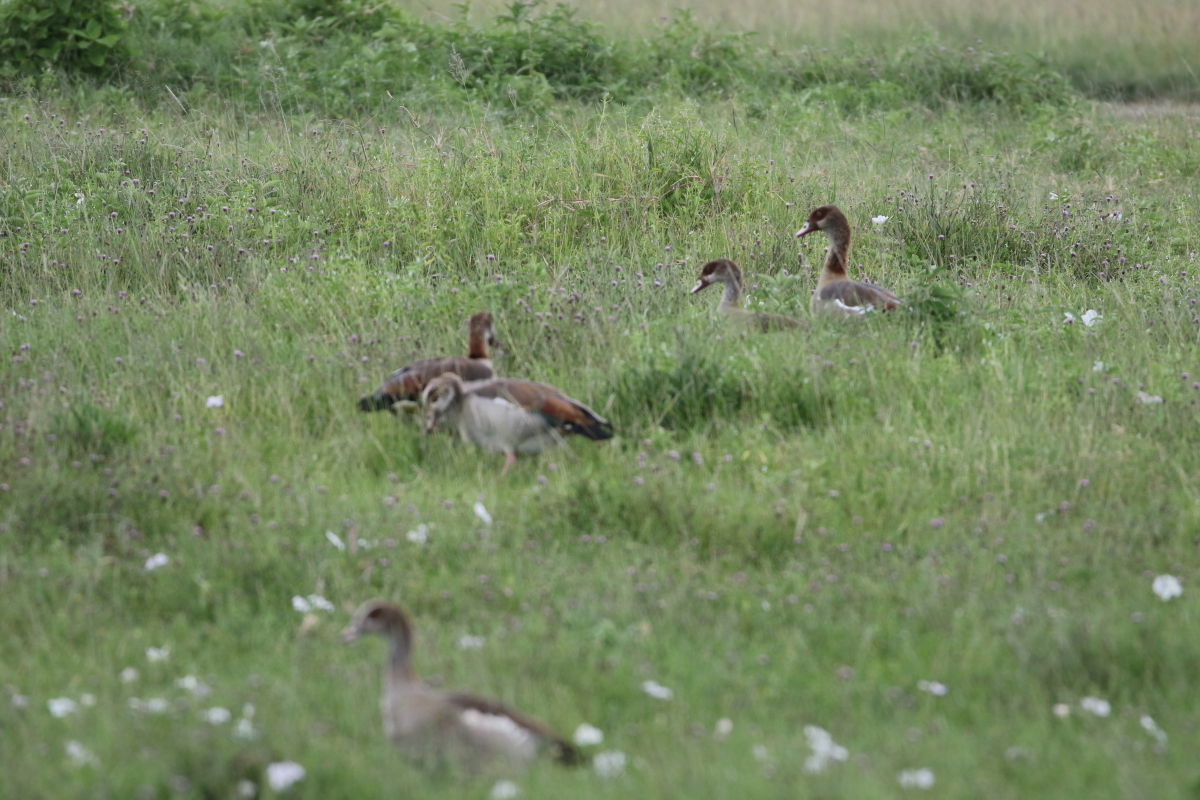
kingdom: Animalia
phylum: Chordata
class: Aves
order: Anseriformes
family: Anatidae
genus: Alopochen
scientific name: Alopochen aegyptiaca
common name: Egyptian goose
